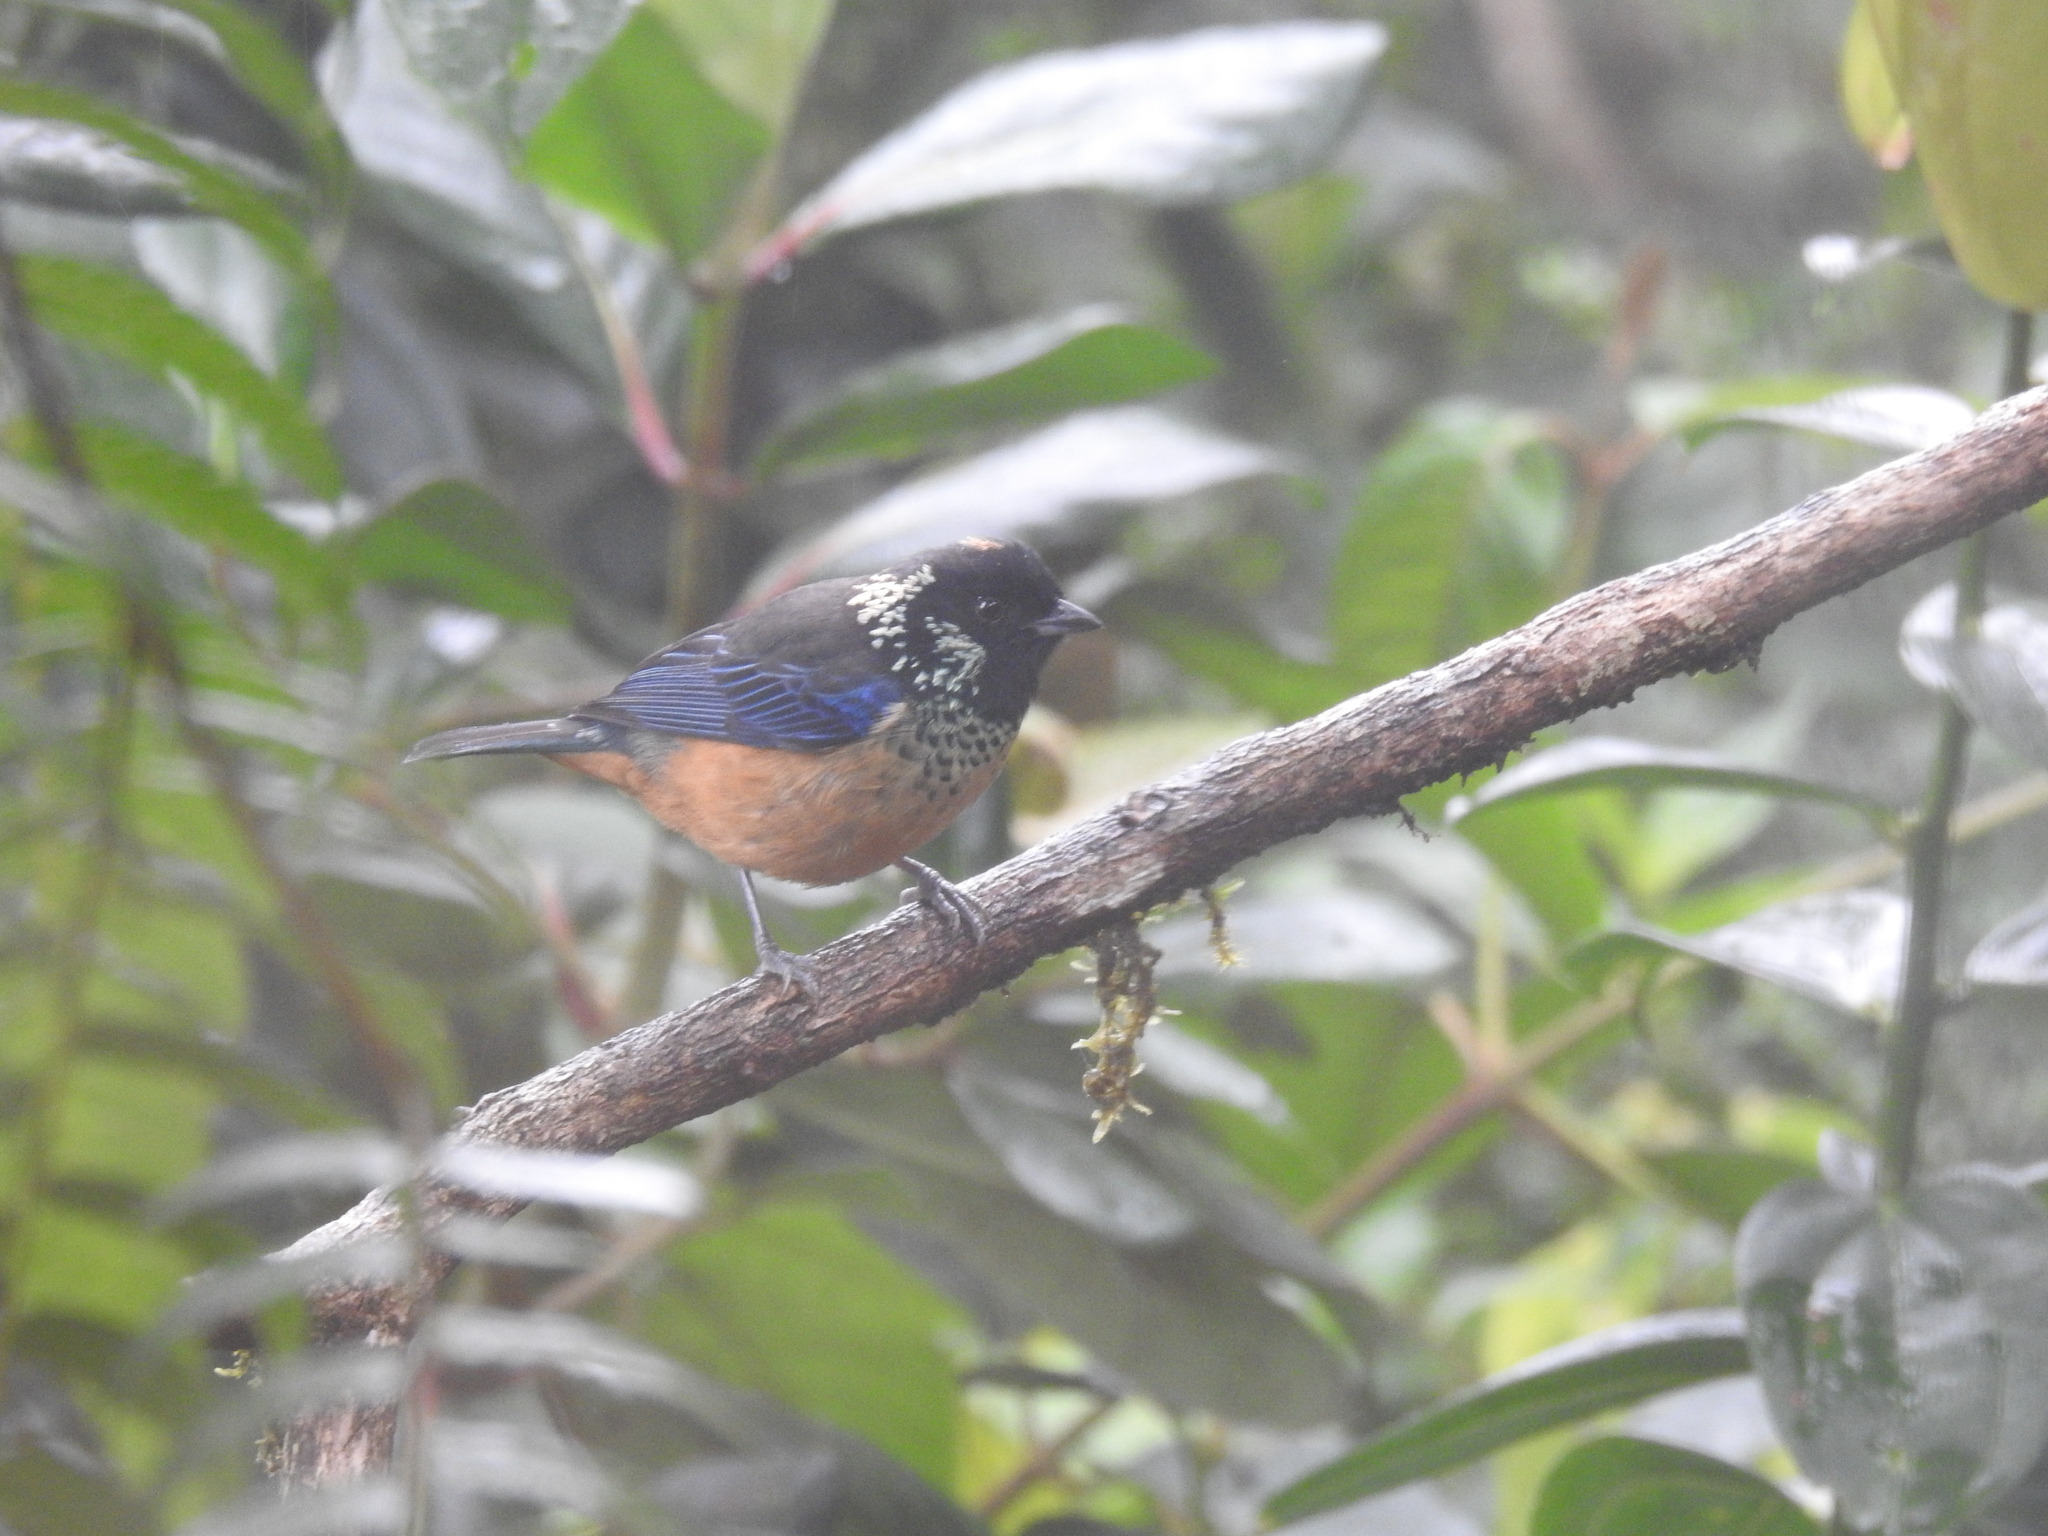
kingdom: Animalia
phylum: Chordata
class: Aves
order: Passeriformes
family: Thraupidae
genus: Tangara
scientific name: Tangara dowii
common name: Spangle-cheeked tanager
